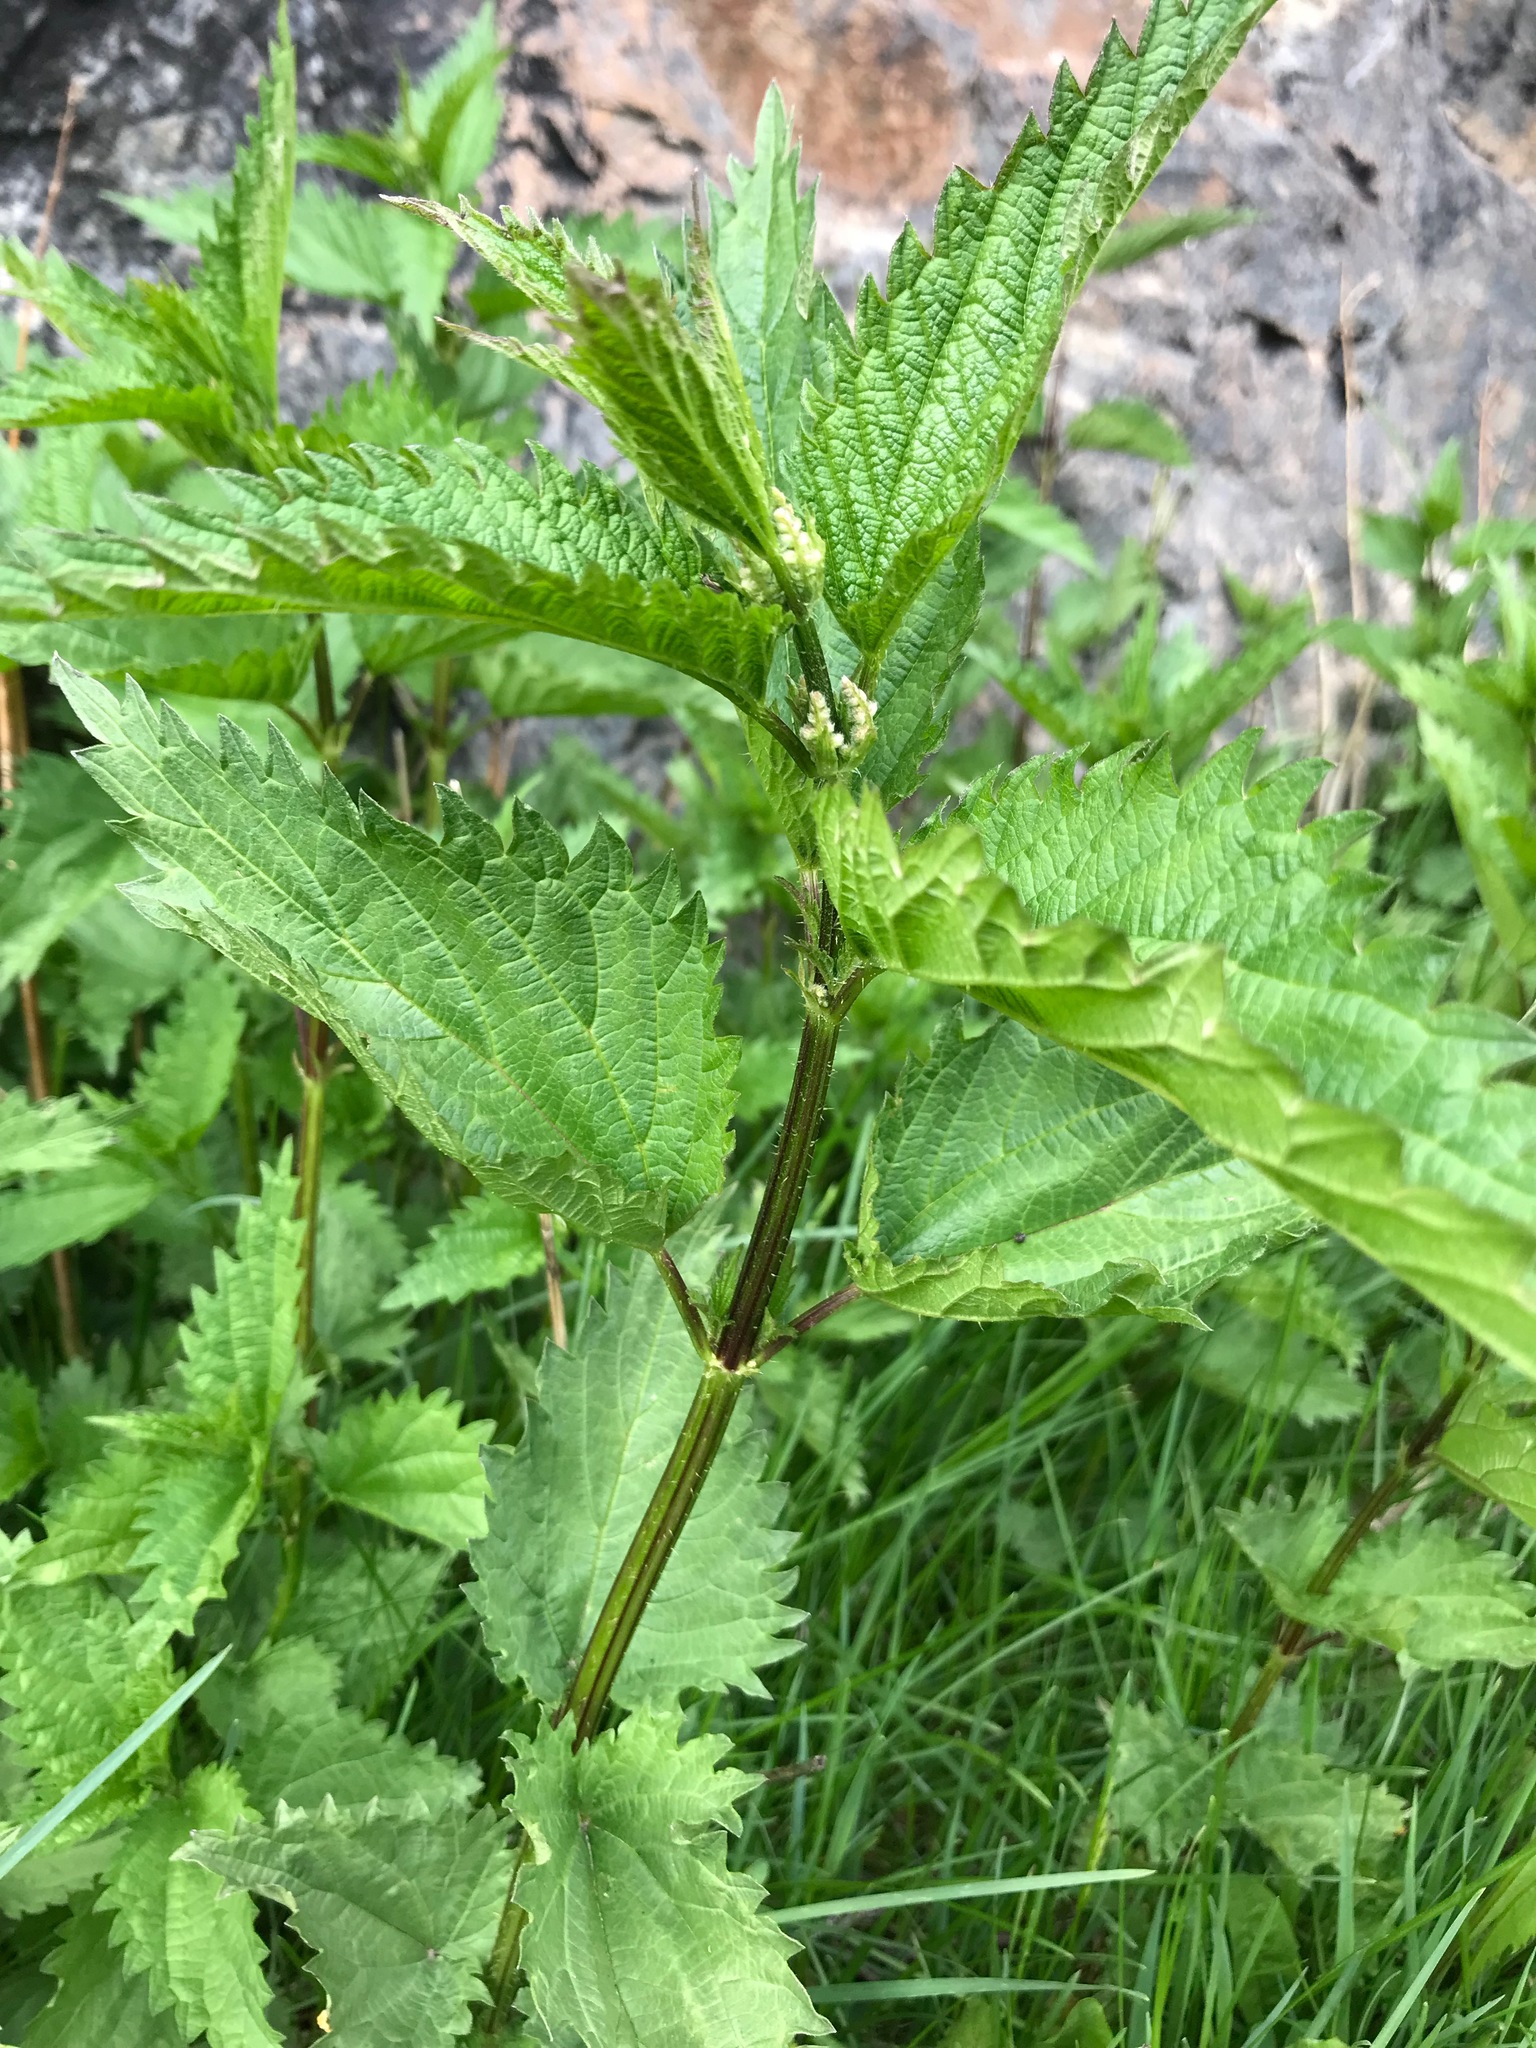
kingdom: Plantae
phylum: Tracheophyta
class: Magnoliopsida
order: Rosales
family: Urticaceae
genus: Urtica
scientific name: Urtica dioica
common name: Common nettle
